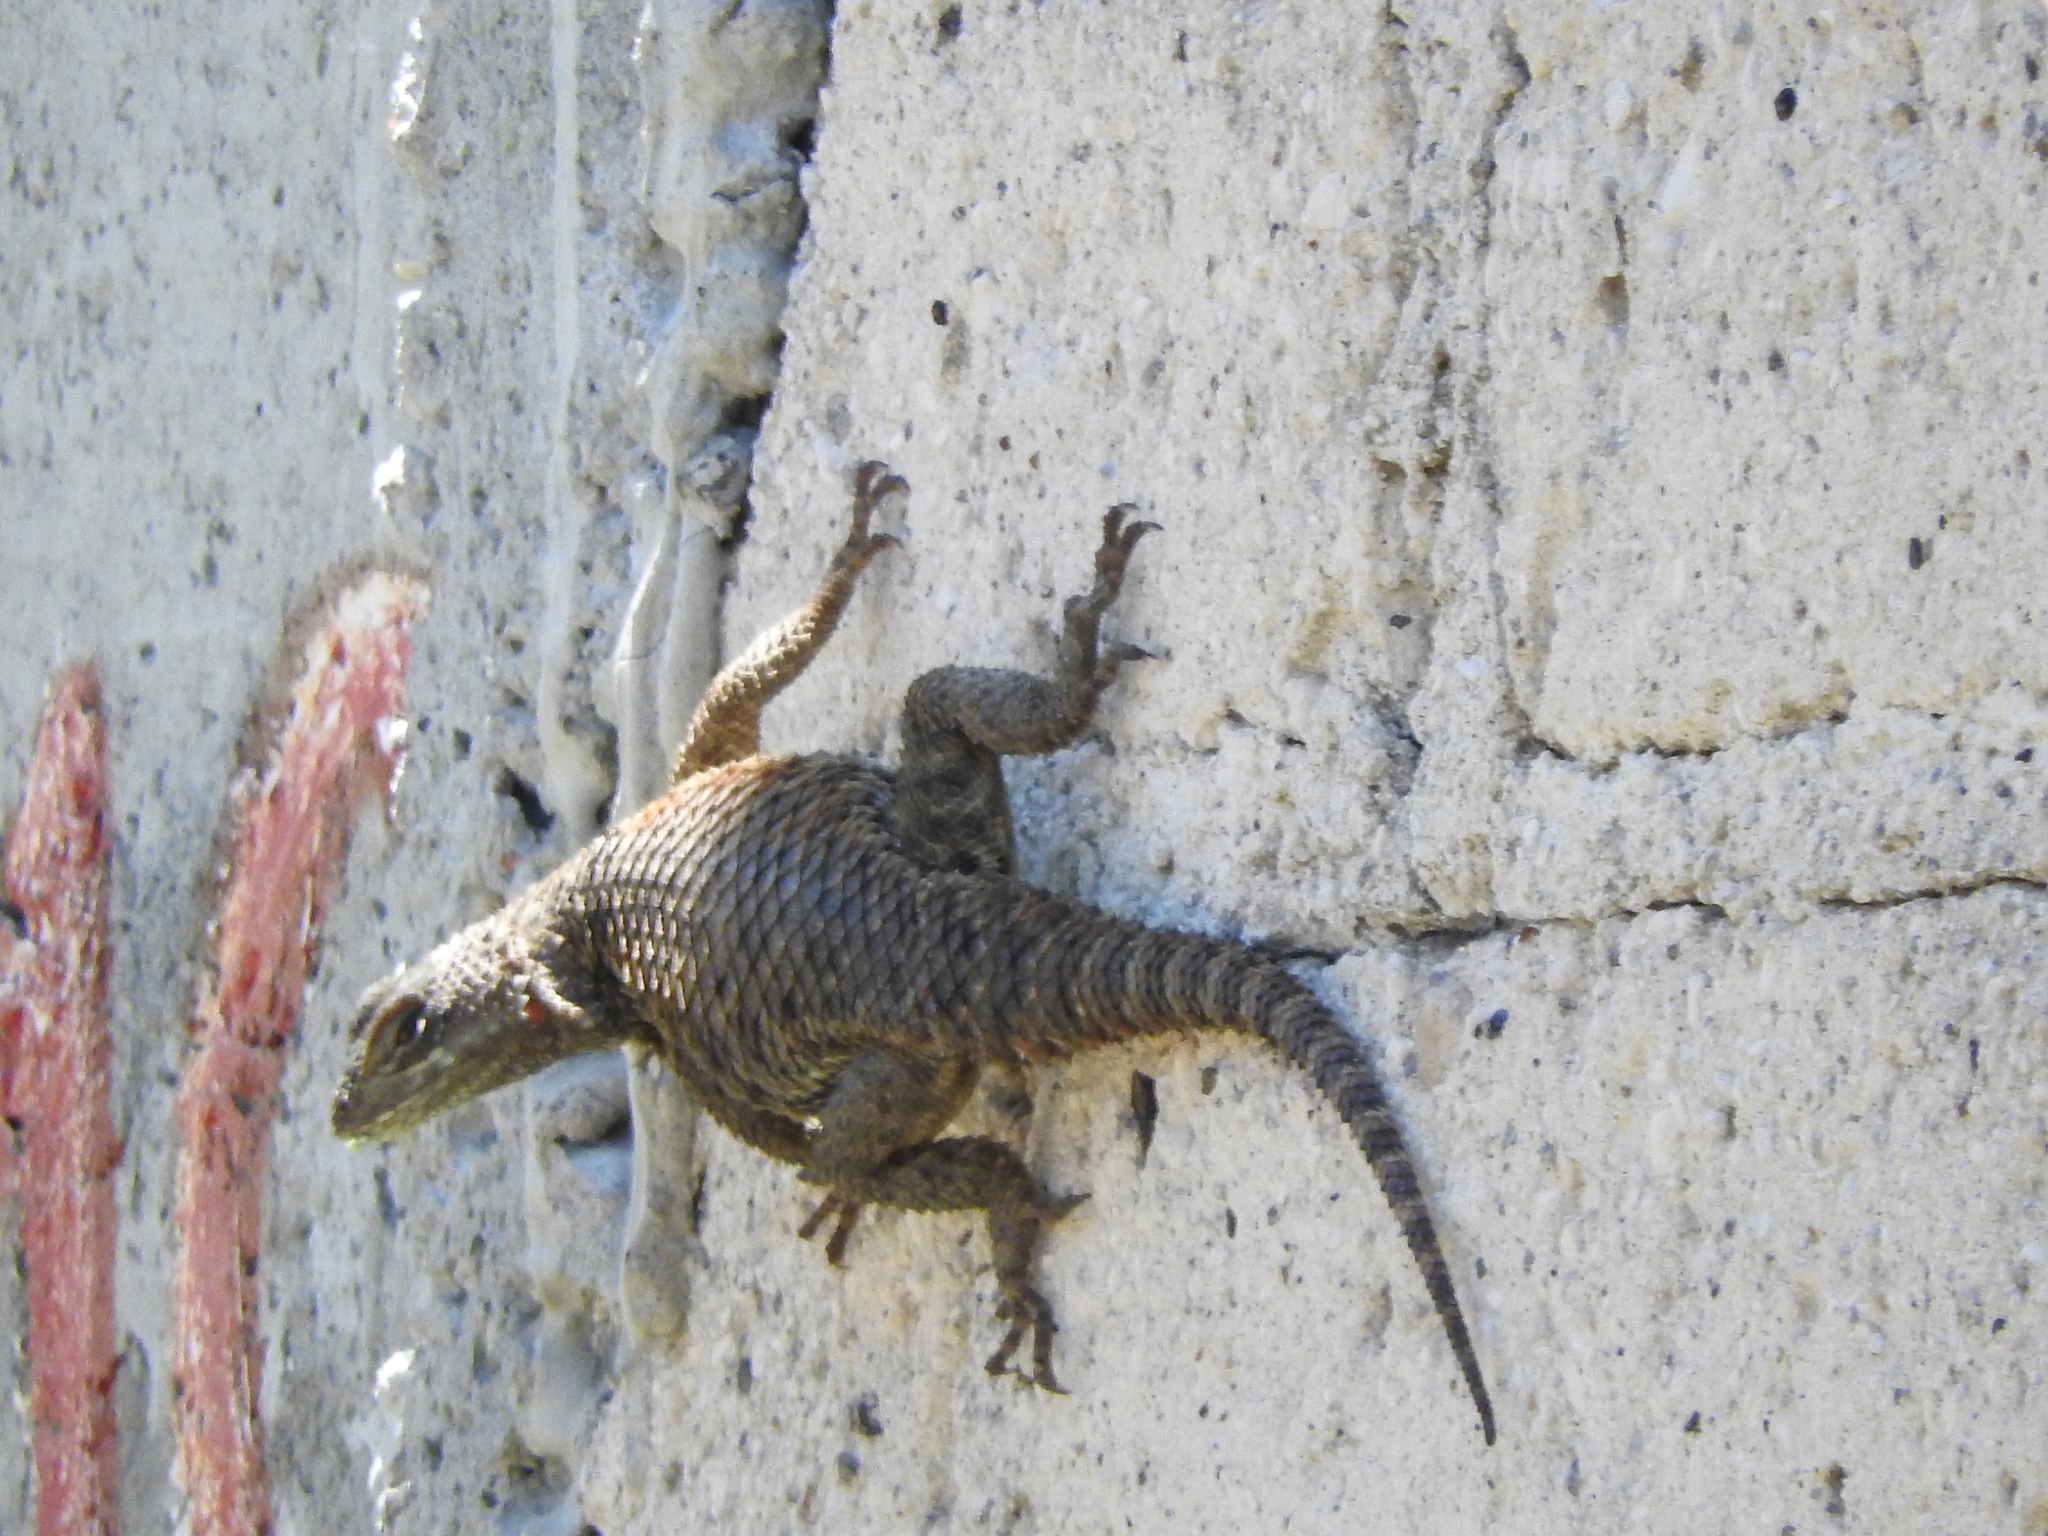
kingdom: Animalia
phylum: Chordata
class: Squamata
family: Phrynosomatidae
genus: Sceloporus
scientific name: Sceloporus torquatus
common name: Central plateau torquate lizard [melanogaster]
